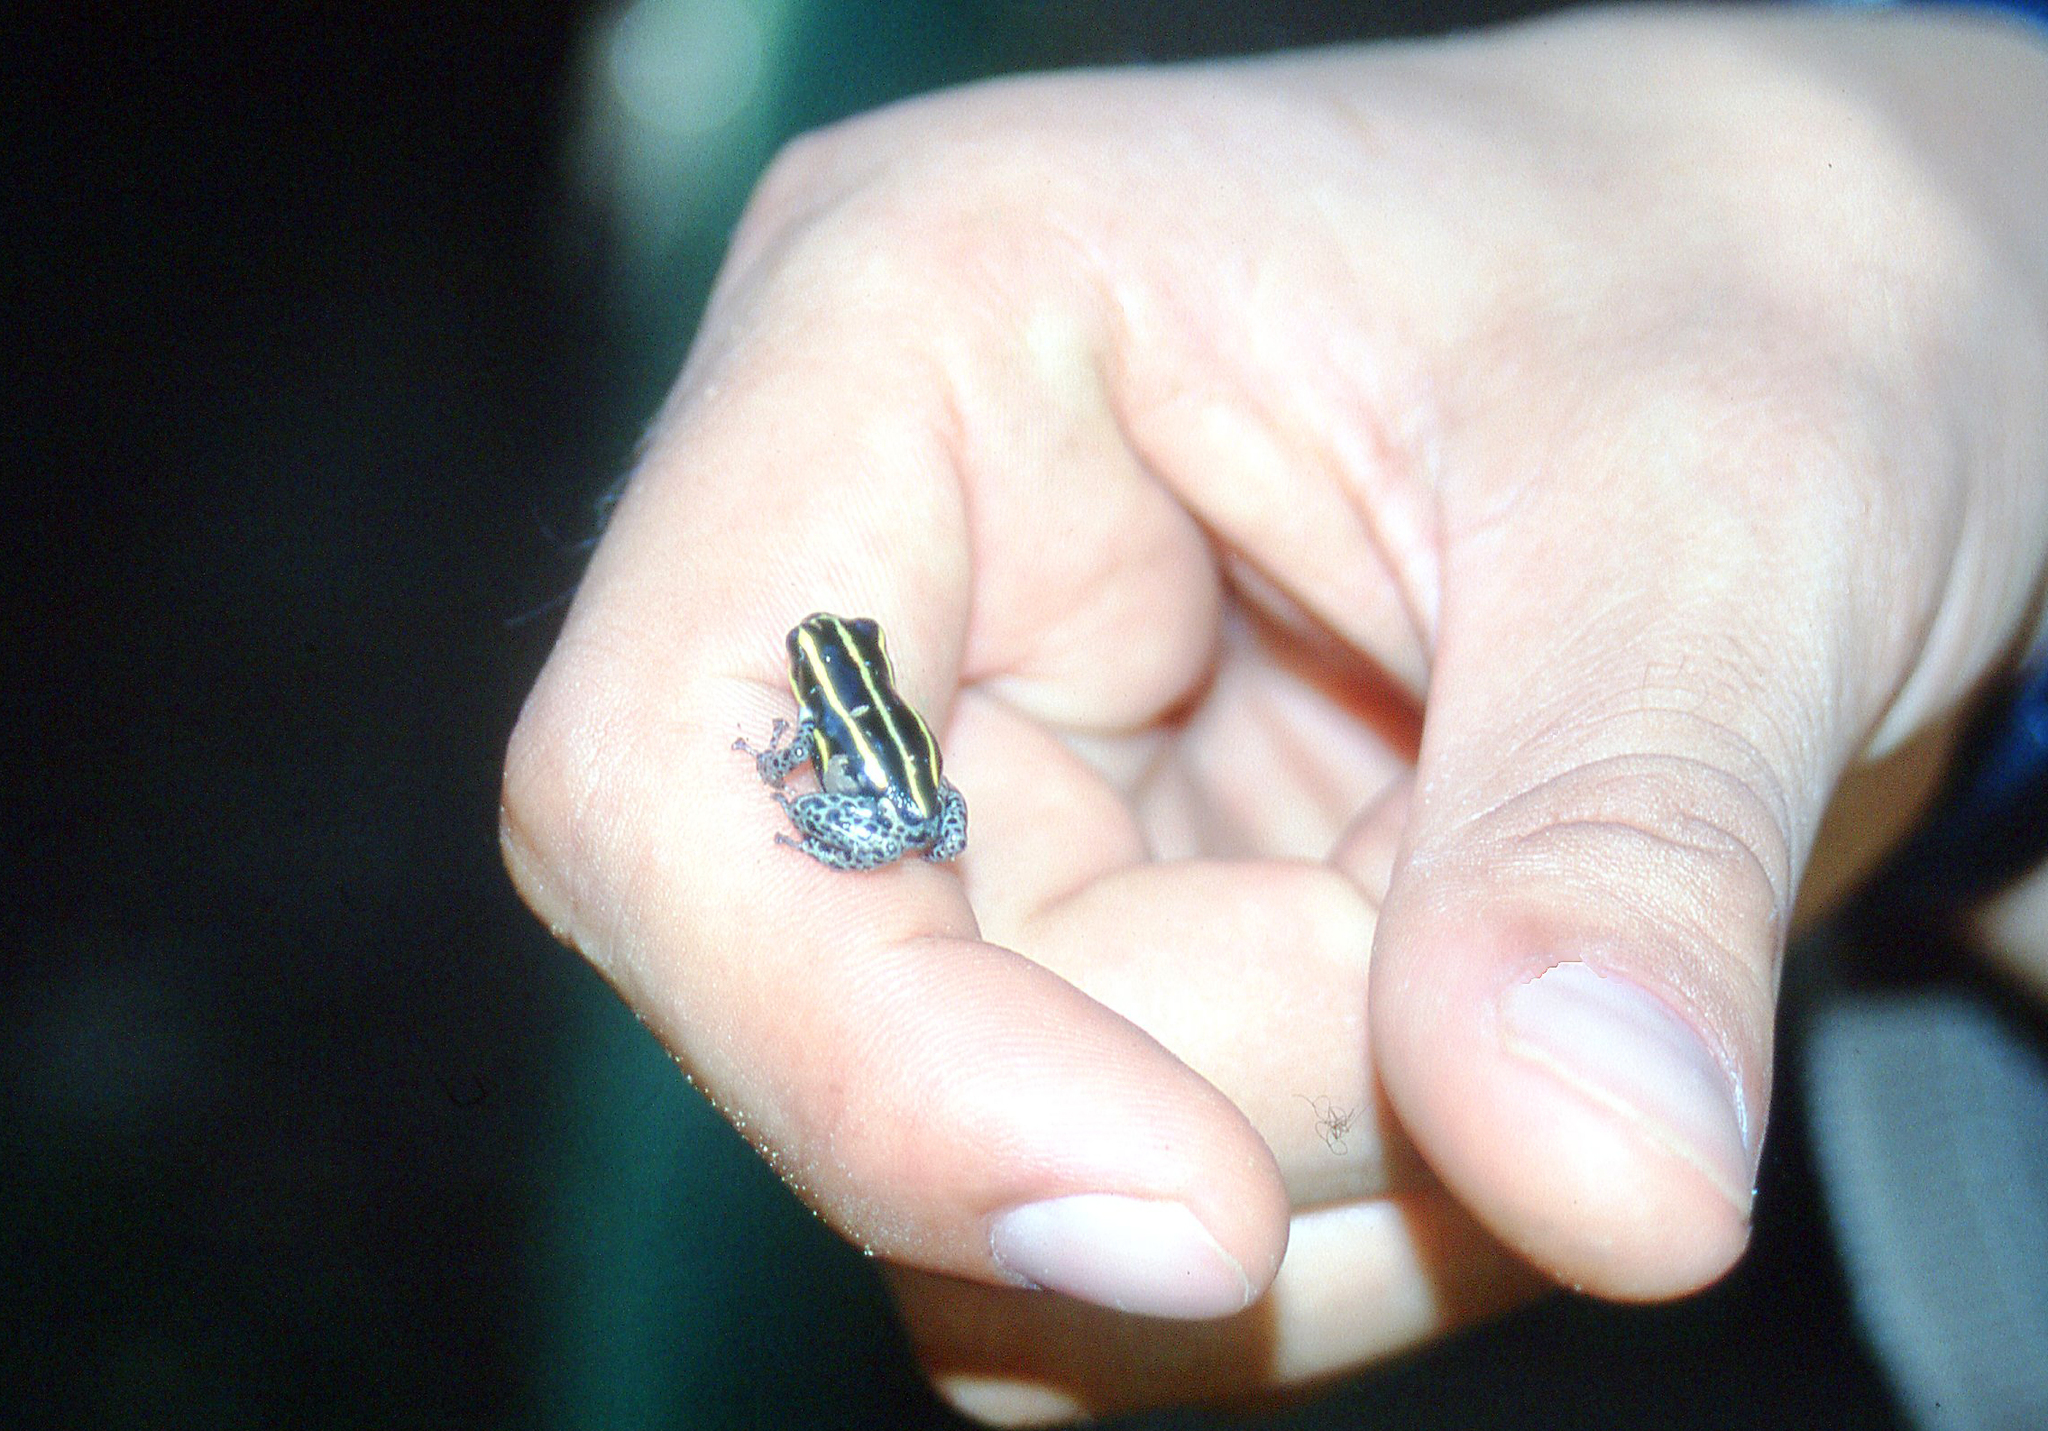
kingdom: Animalia
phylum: Chordata
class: Amphibia
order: Anura
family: Dendrobatidae
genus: Ranitomeya
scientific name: Ranitomeya sirensis
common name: Sira poison frog
